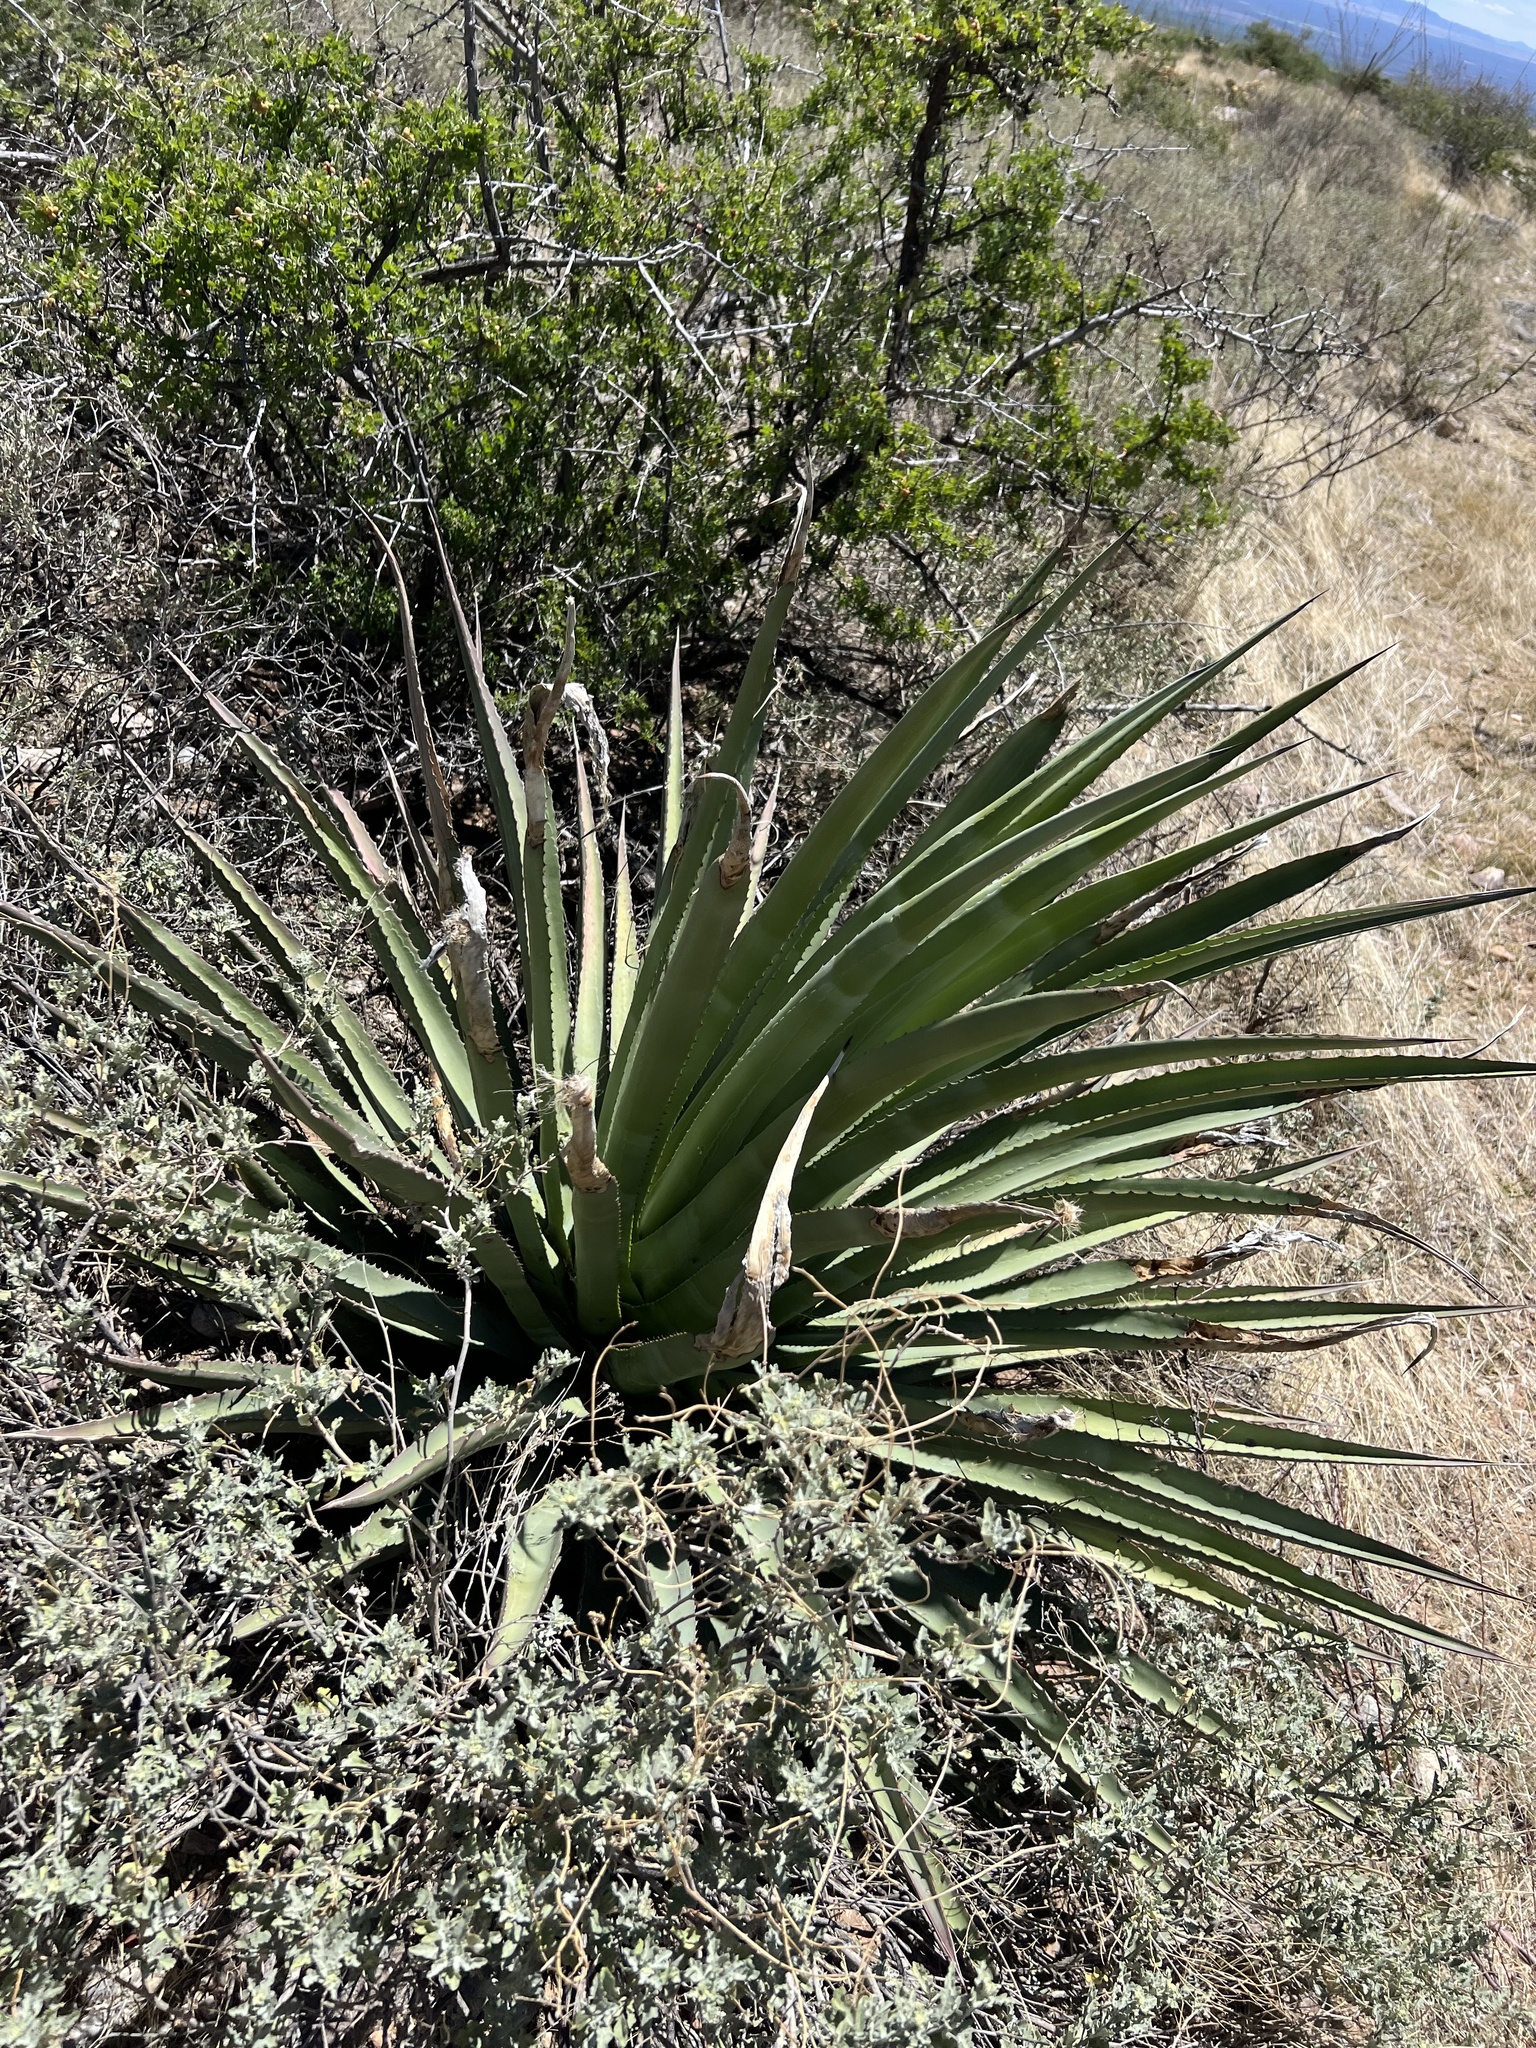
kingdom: Plantae
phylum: Tracheophyta
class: Liliopsida
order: Asparagales
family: Asparagaceae
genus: Agave
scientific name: Agave palmeri
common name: Palmer agave
